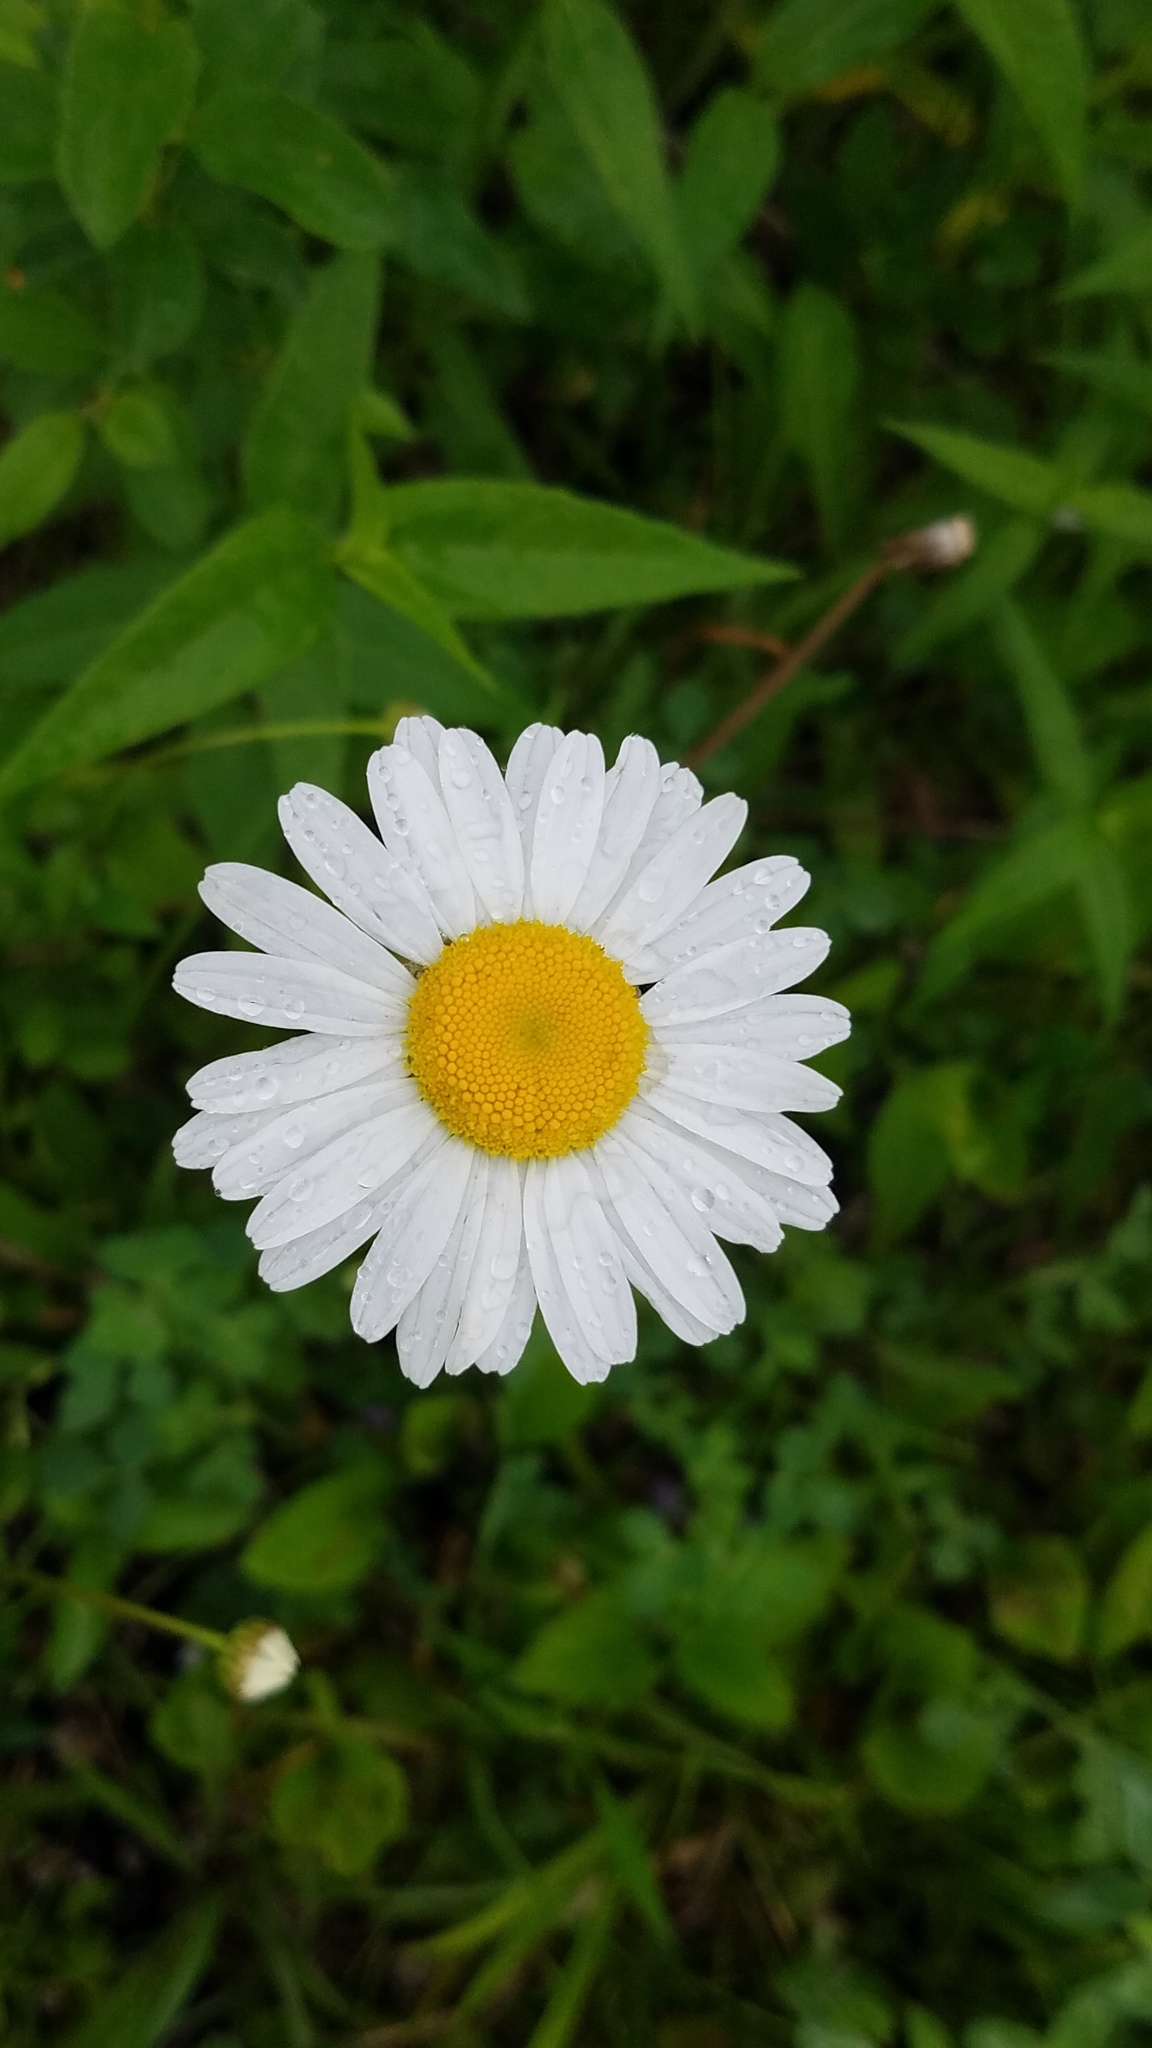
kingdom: Plantae
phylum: Tracheophyta
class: Magnoliopsida
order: Asterales
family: Asteraceae
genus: Leucanthemum
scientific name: Leucanthemum vulgare
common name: Oxeye daisy
